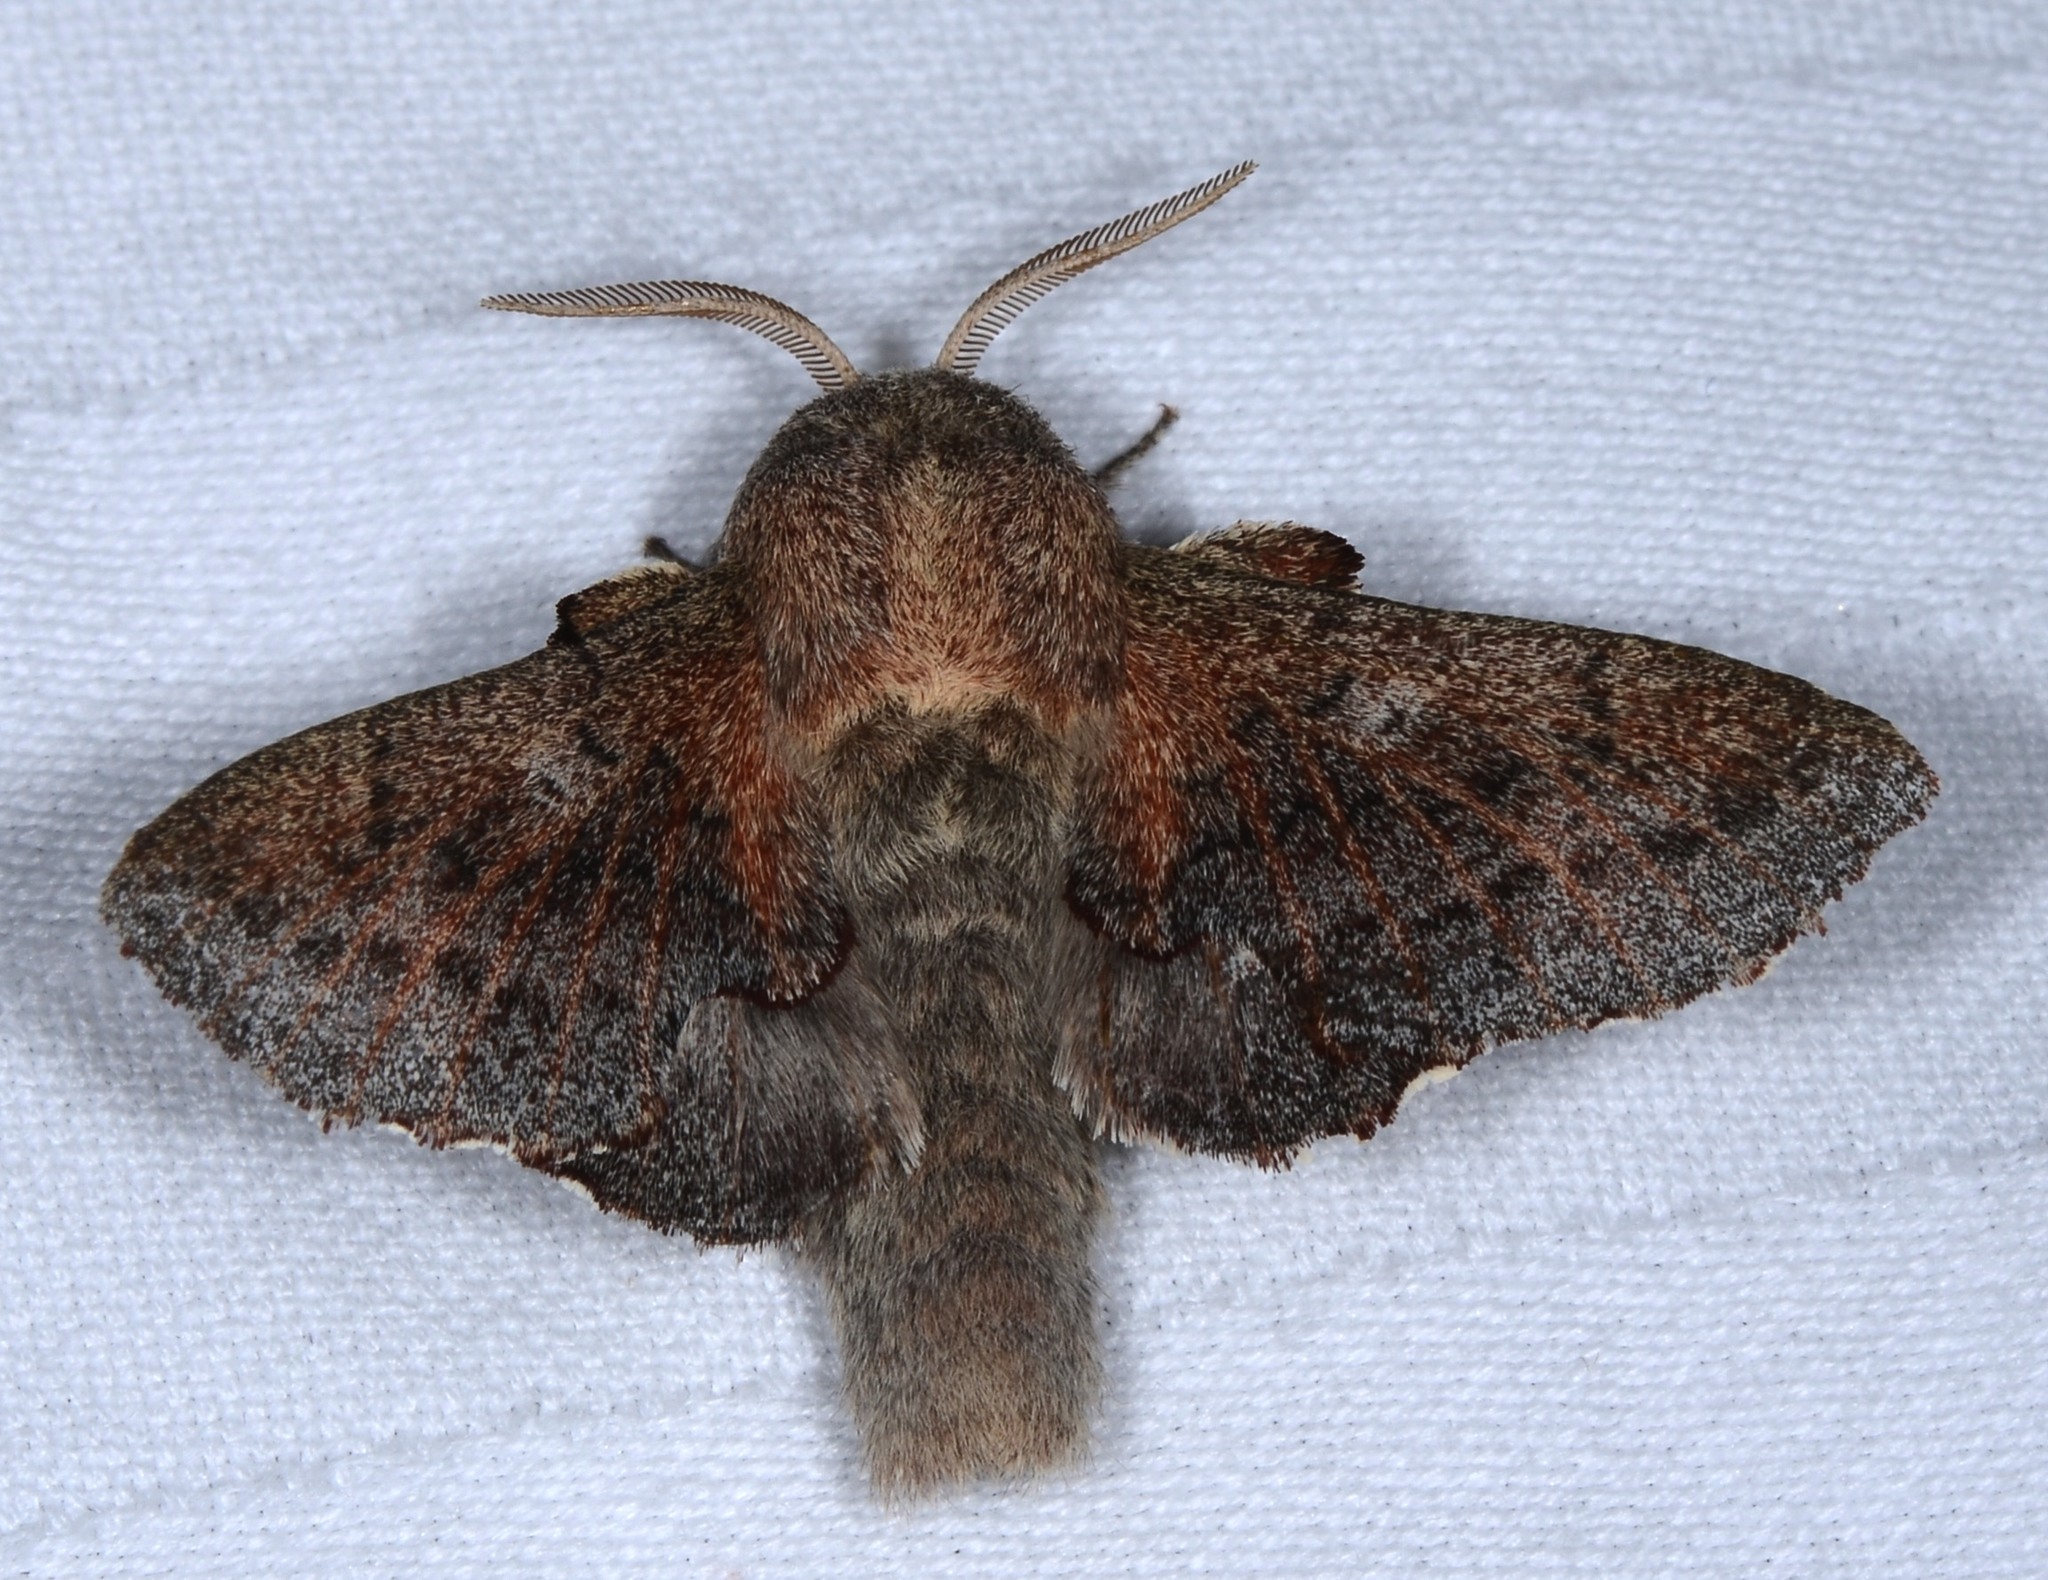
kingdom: Animalia
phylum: Arthropoda
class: Insecta
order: Lepidoptera
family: Lasiocampidae
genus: Phyllodesma
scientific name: Phyllodesma americana
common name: American lappet moth
